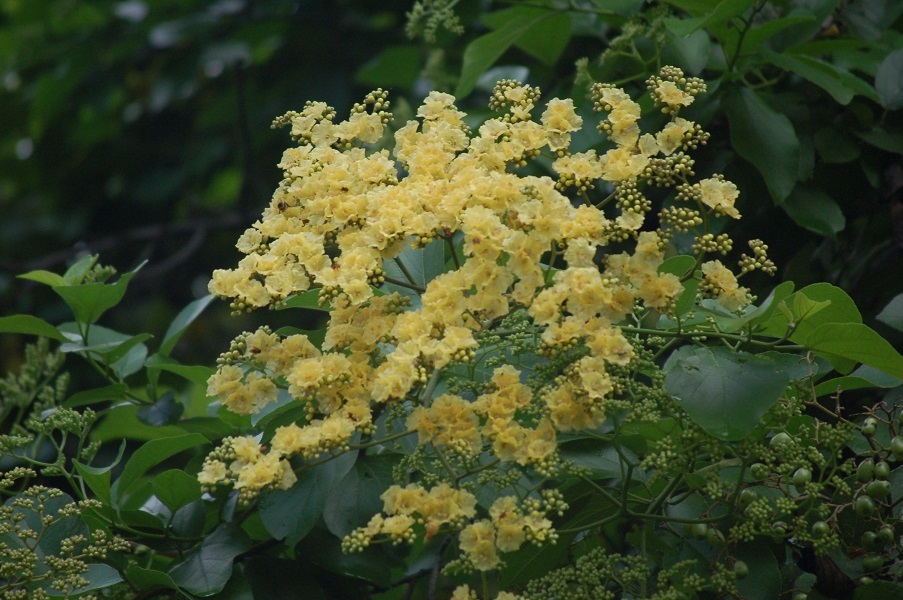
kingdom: Plantae
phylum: Tracheophyta
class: Magnoliopsida
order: Boraginales
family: Cordiaceae
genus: Cordia
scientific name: Cordia dentata
